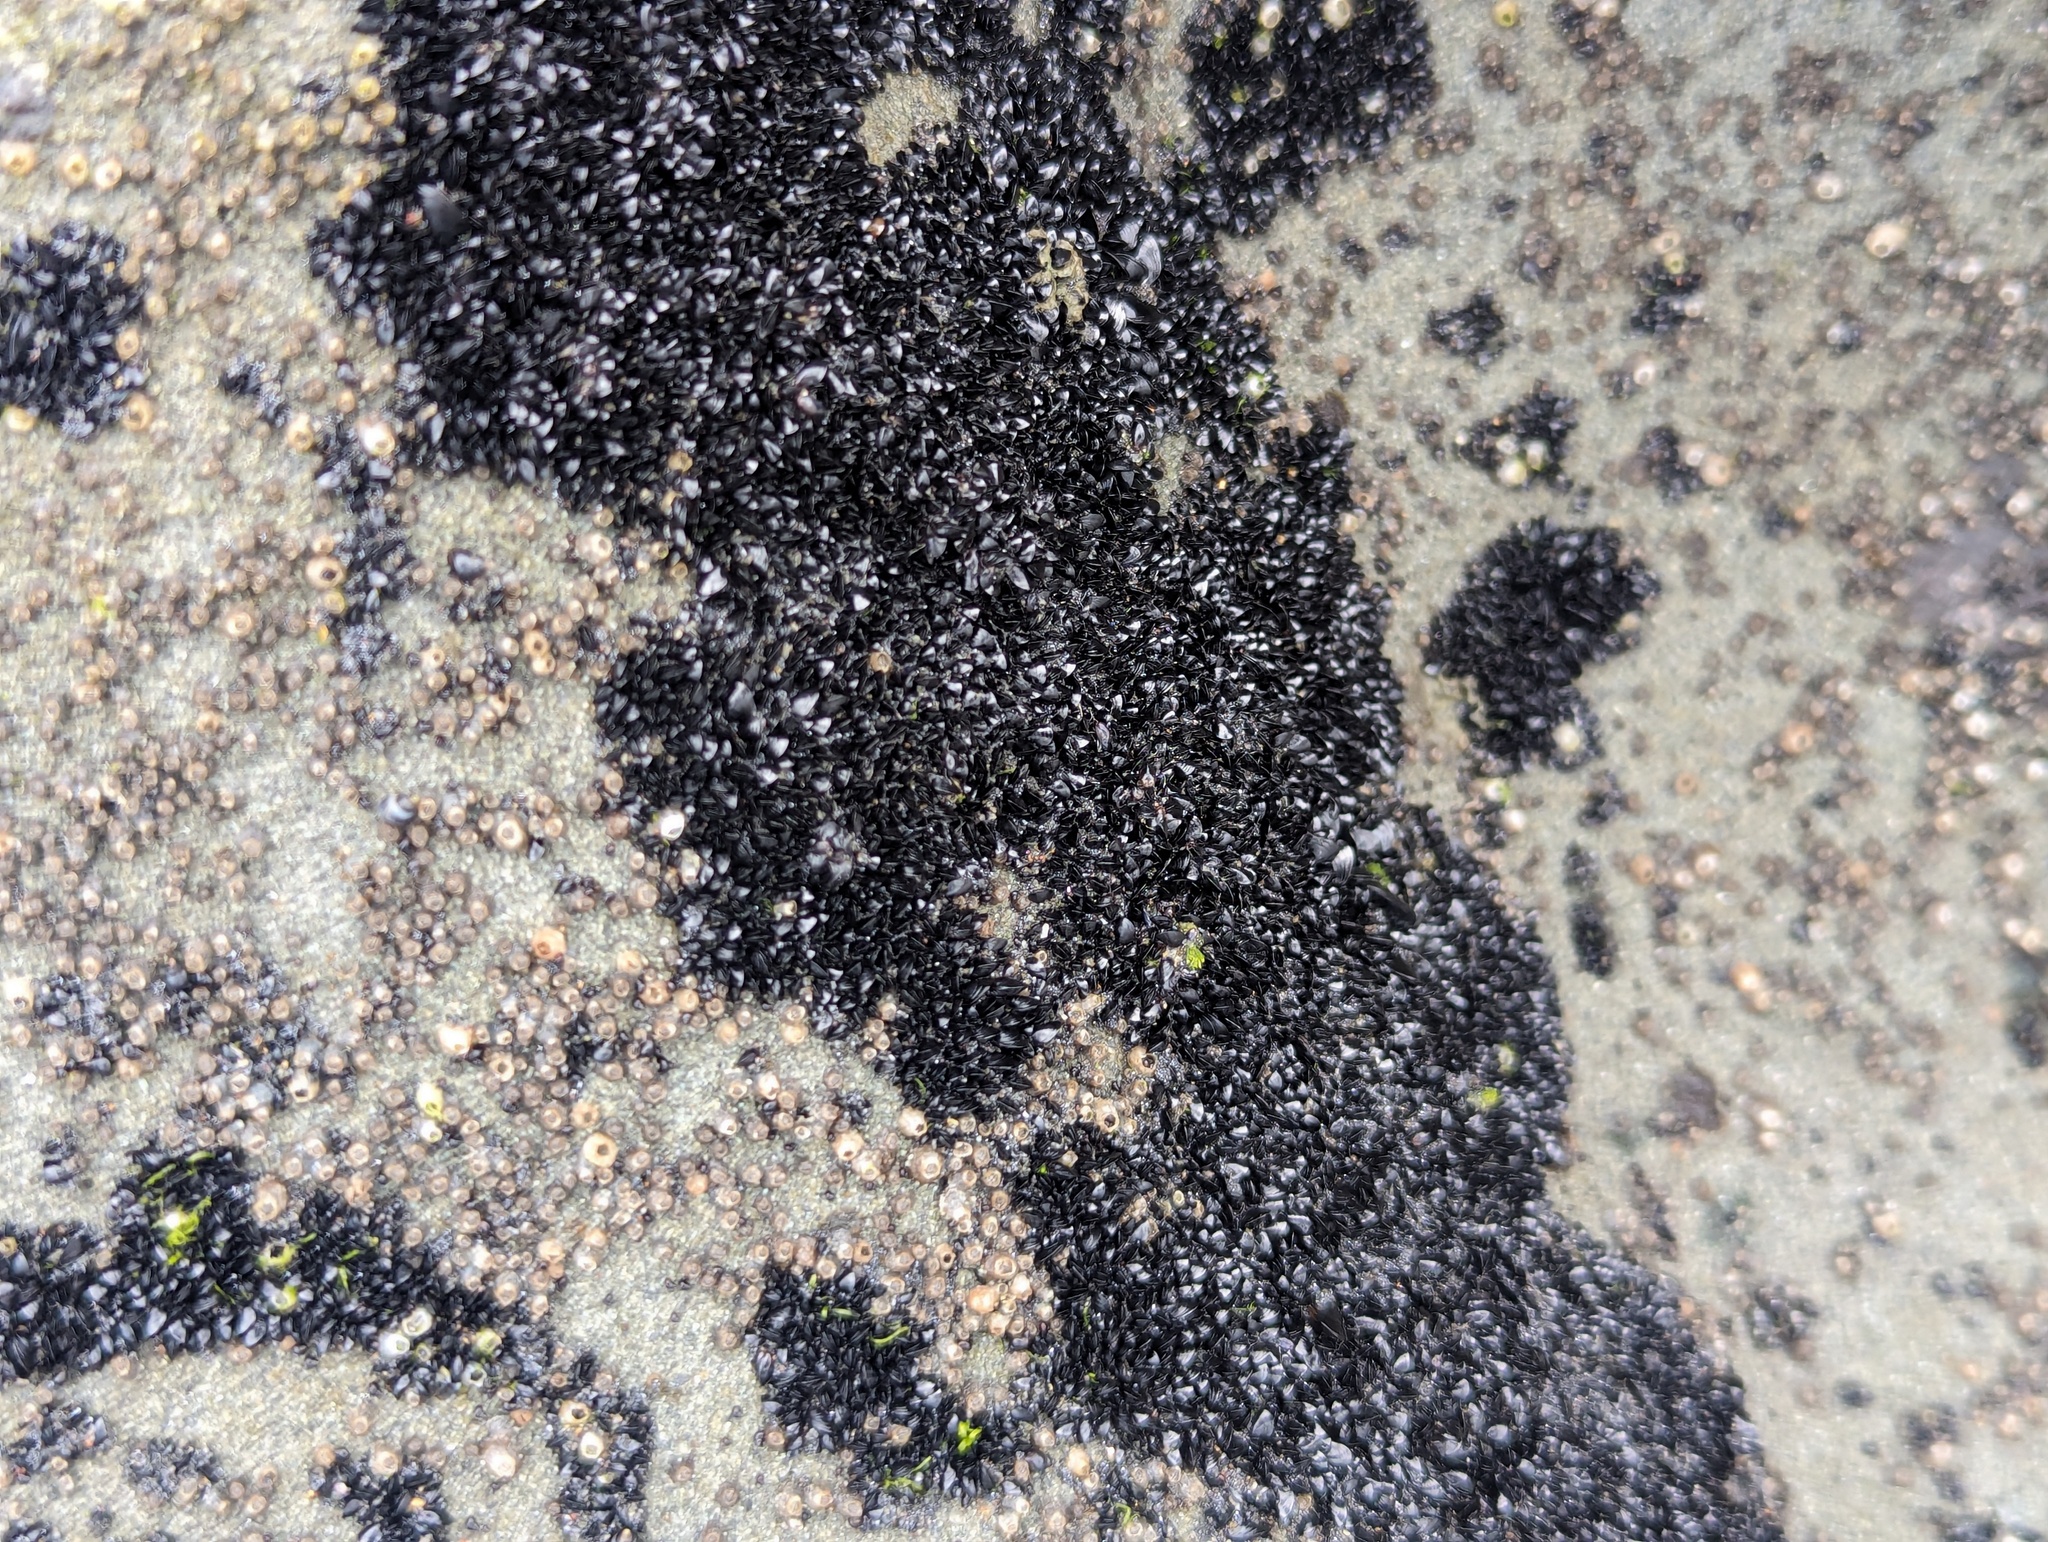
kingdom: Animalia
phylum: Mollusca
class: Bivalvia
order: Mytilida
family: Mytilidae
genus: Xenostrobus
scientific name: Xenostrobus neozelanicus
